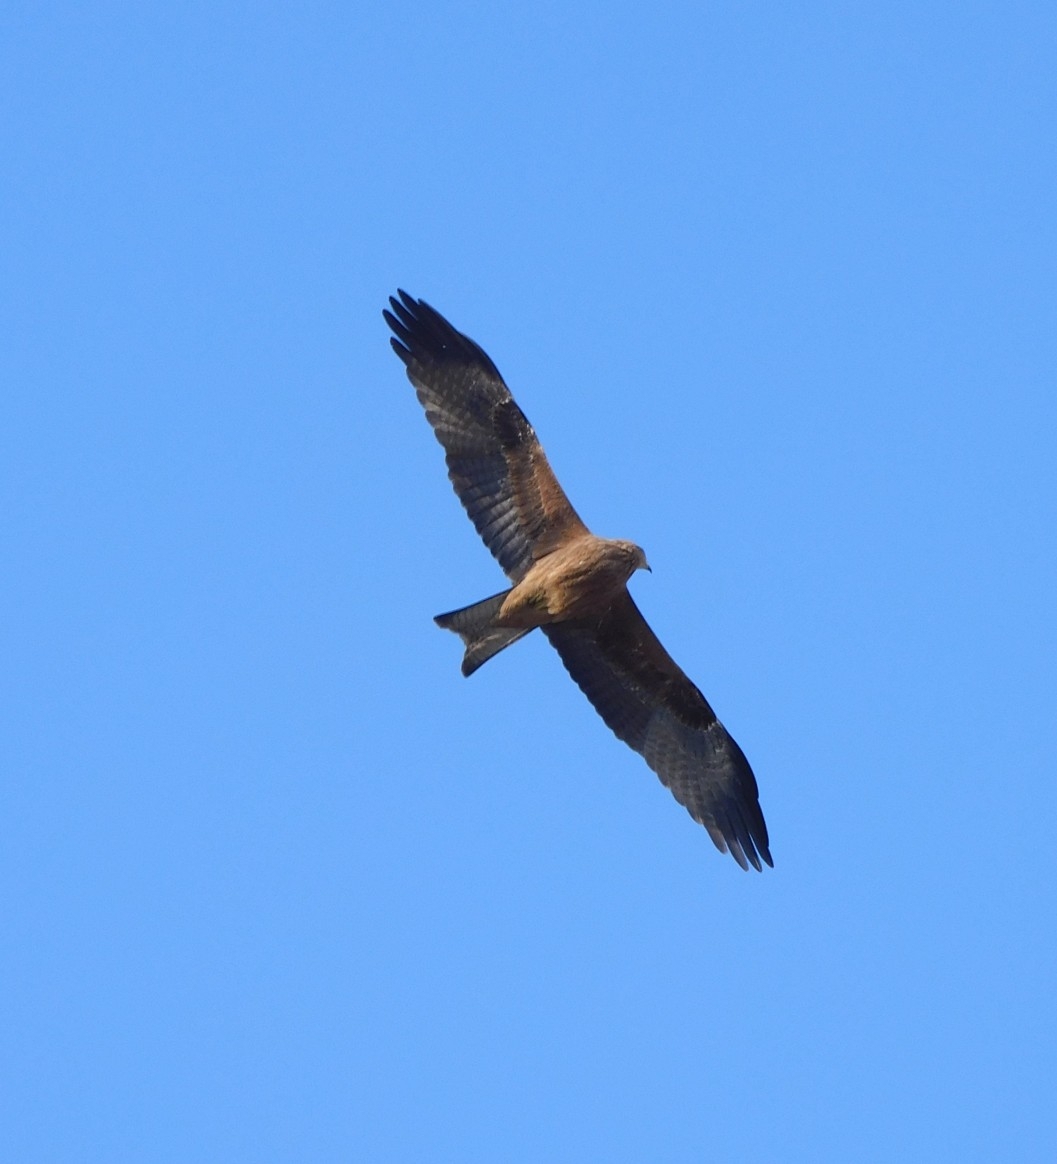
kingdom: Animalia
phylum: Chordata
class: Aves
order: Accipitriformes
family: Accipitridae
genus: Milvus
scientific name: Milvus migrans
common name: Black kite
